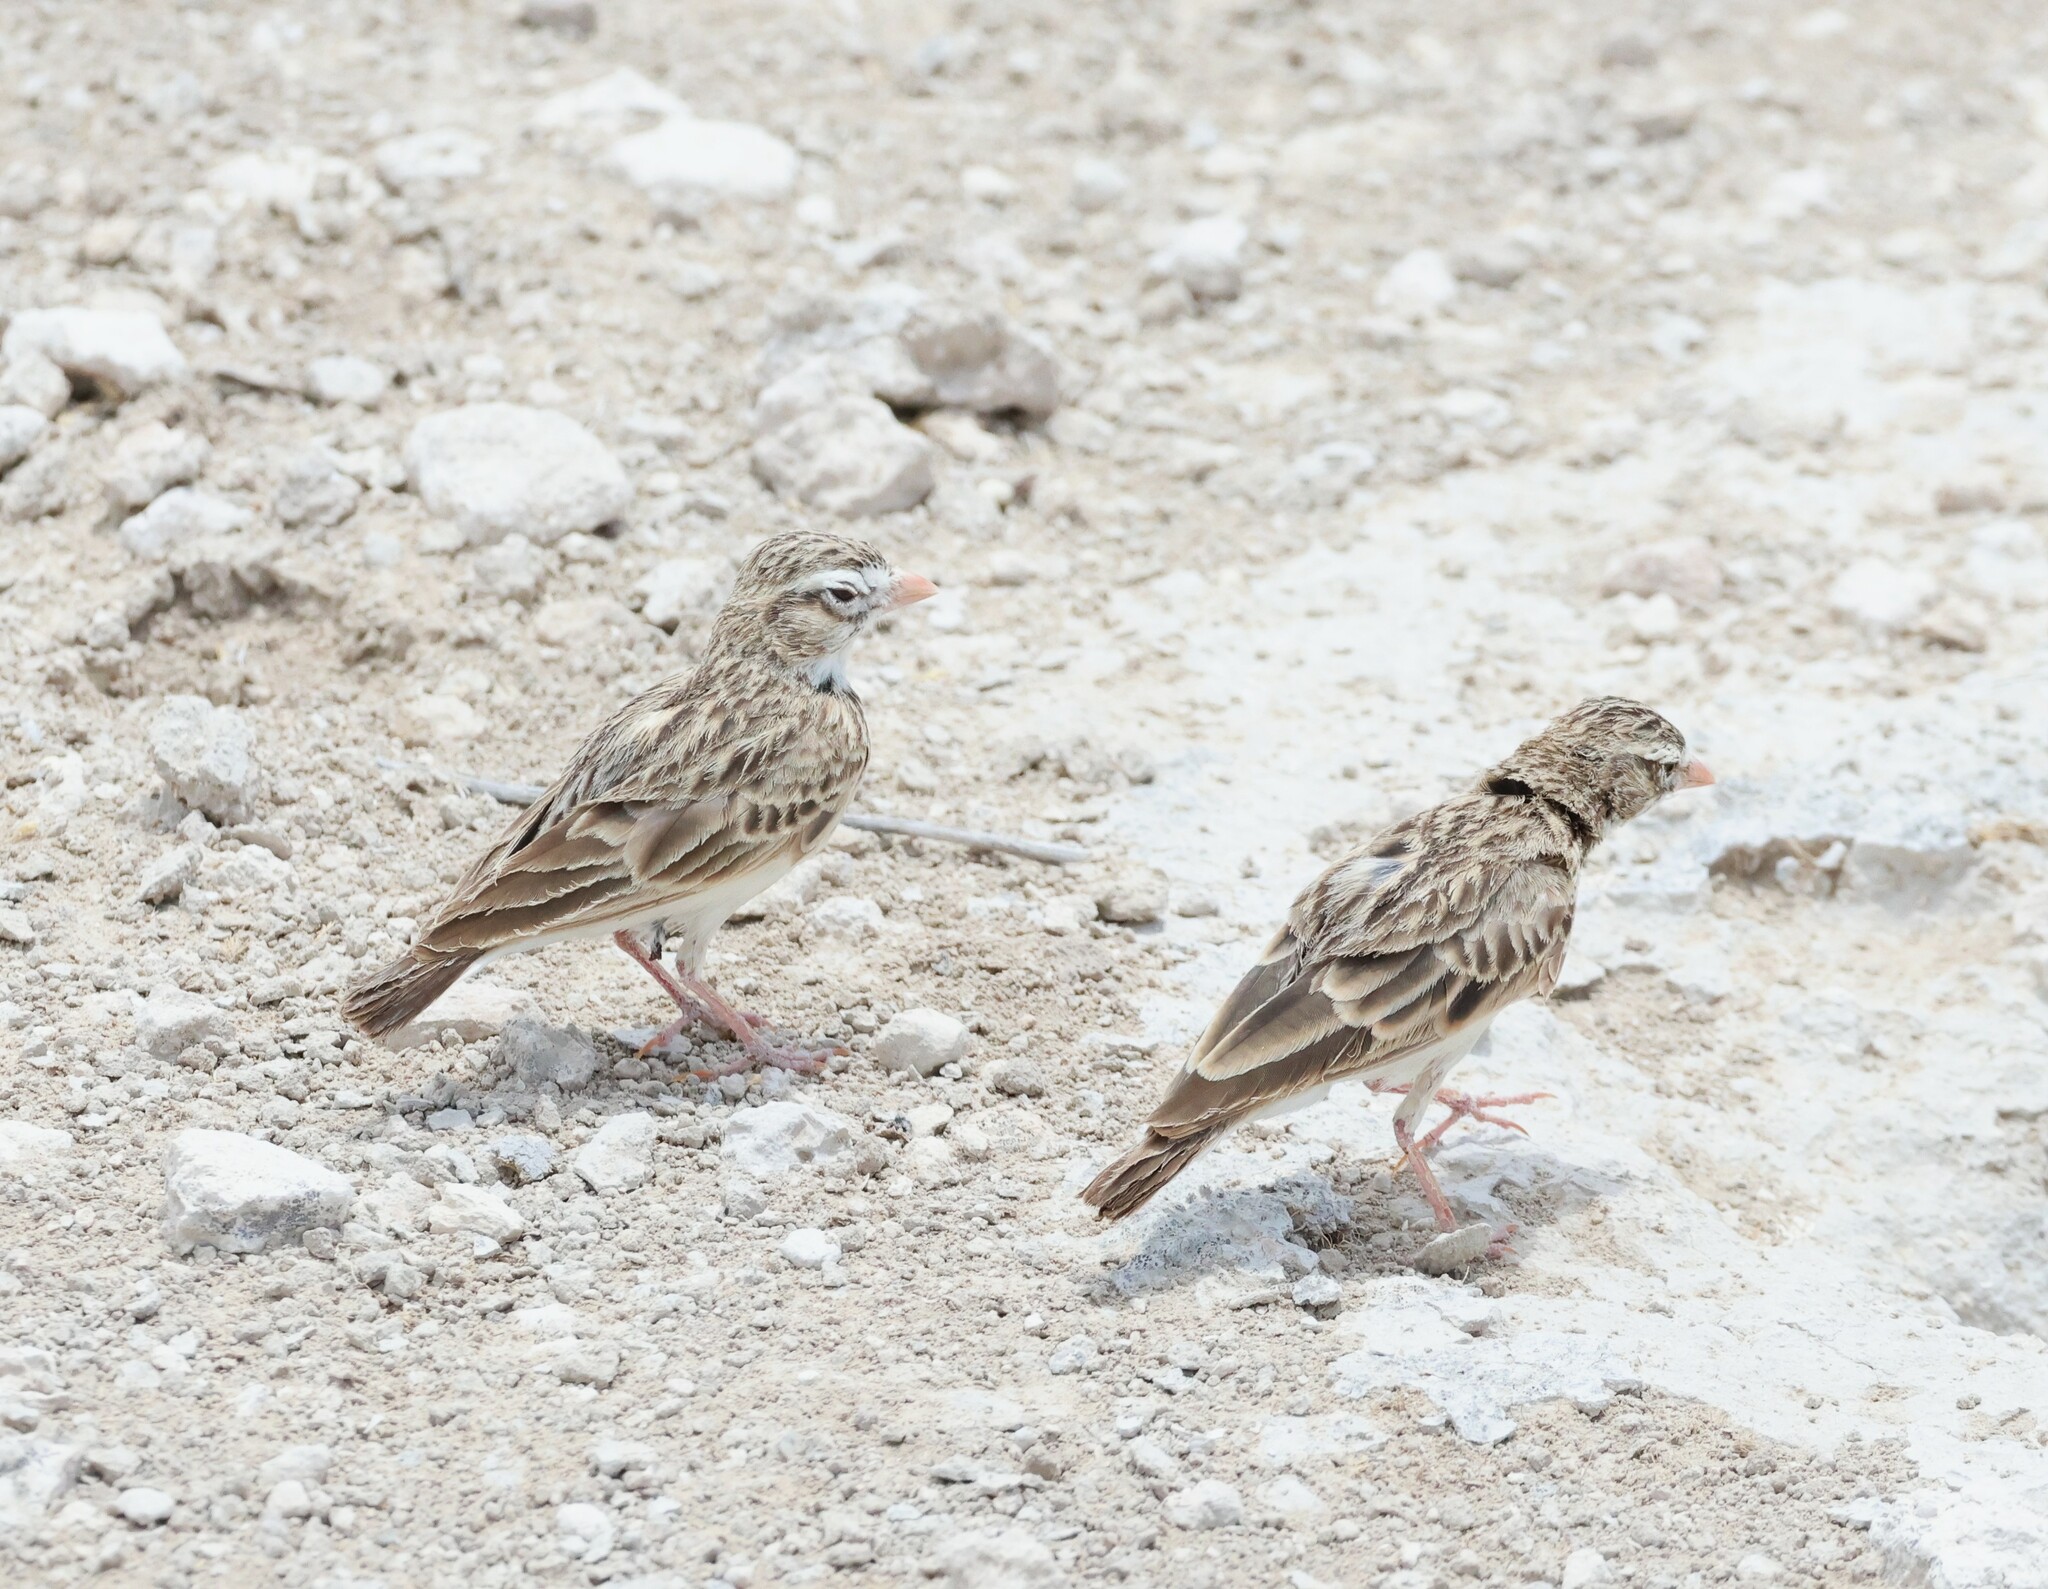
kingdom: Animalia
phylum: Chordata
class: Aves
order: Passeriformes
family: Alaudidae
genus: Spizocorys
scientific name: Spizocorys conirostris
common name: Pink-billed lark
